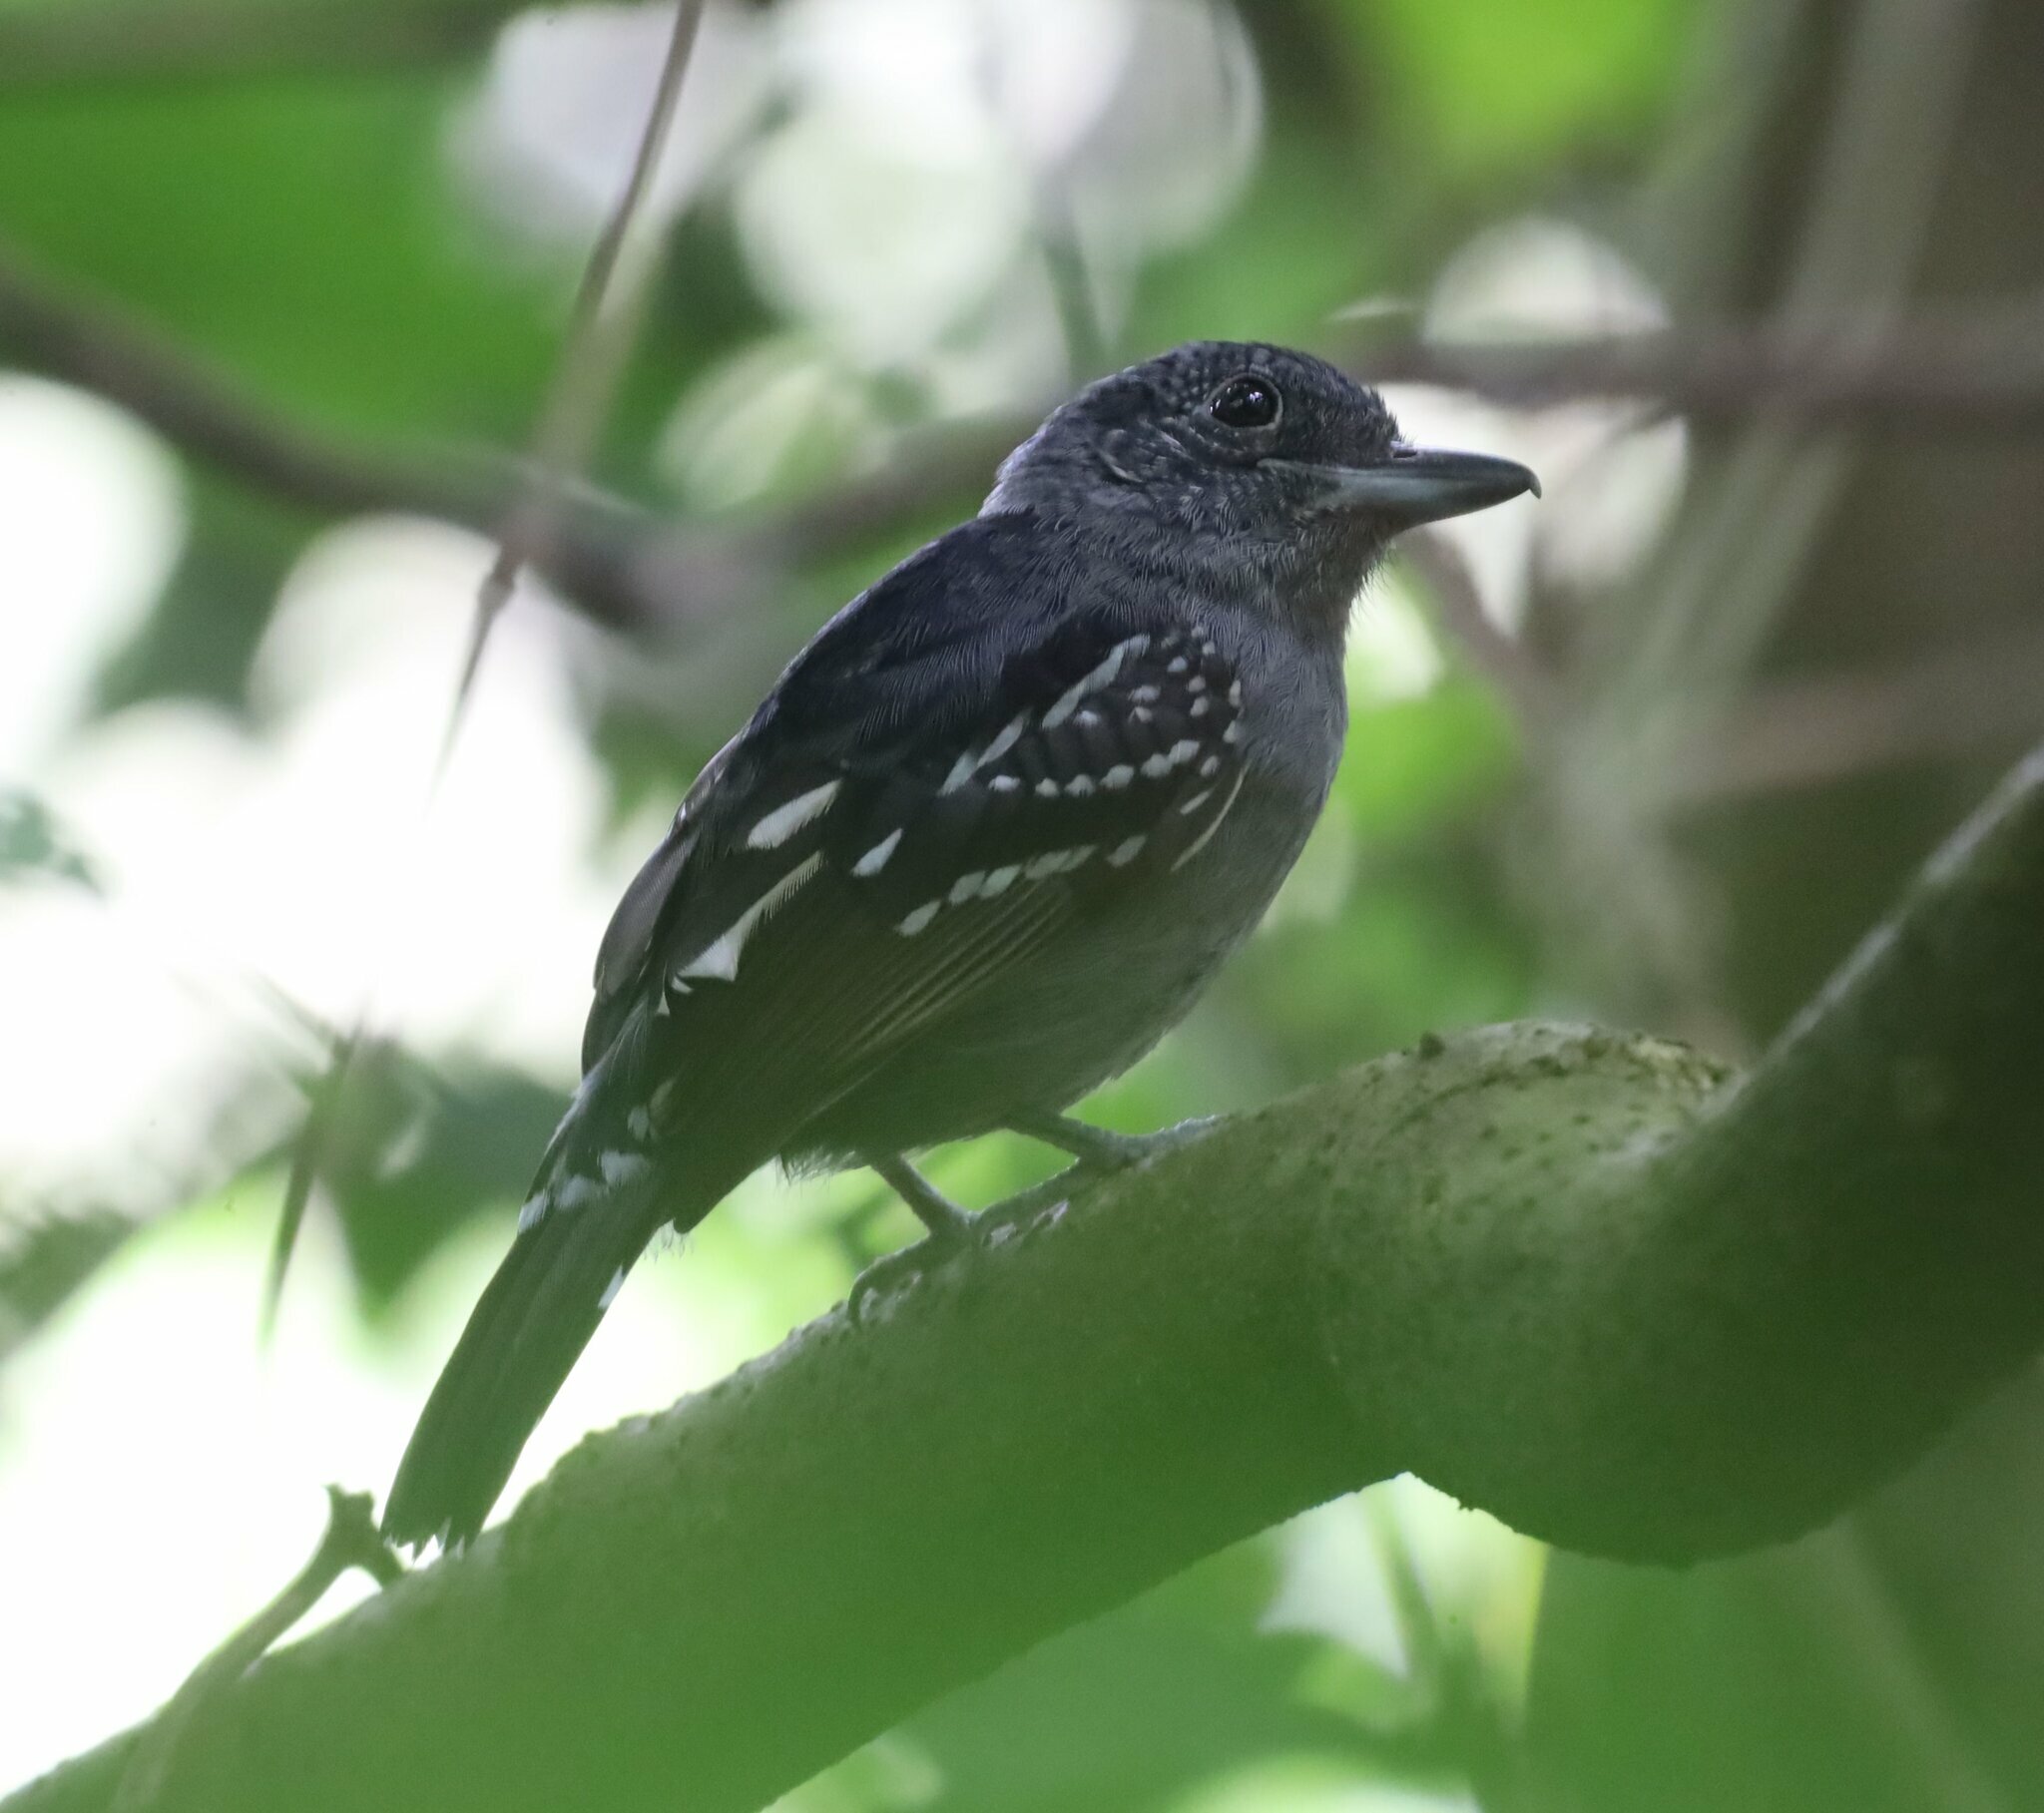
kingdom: Animalia
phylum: Chordata
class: Aves
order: Passeriformes
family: Thamnophilidae
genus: Thamnophilus
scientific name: Thamnophilus atrinucha
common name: Black-crowned antshrike
